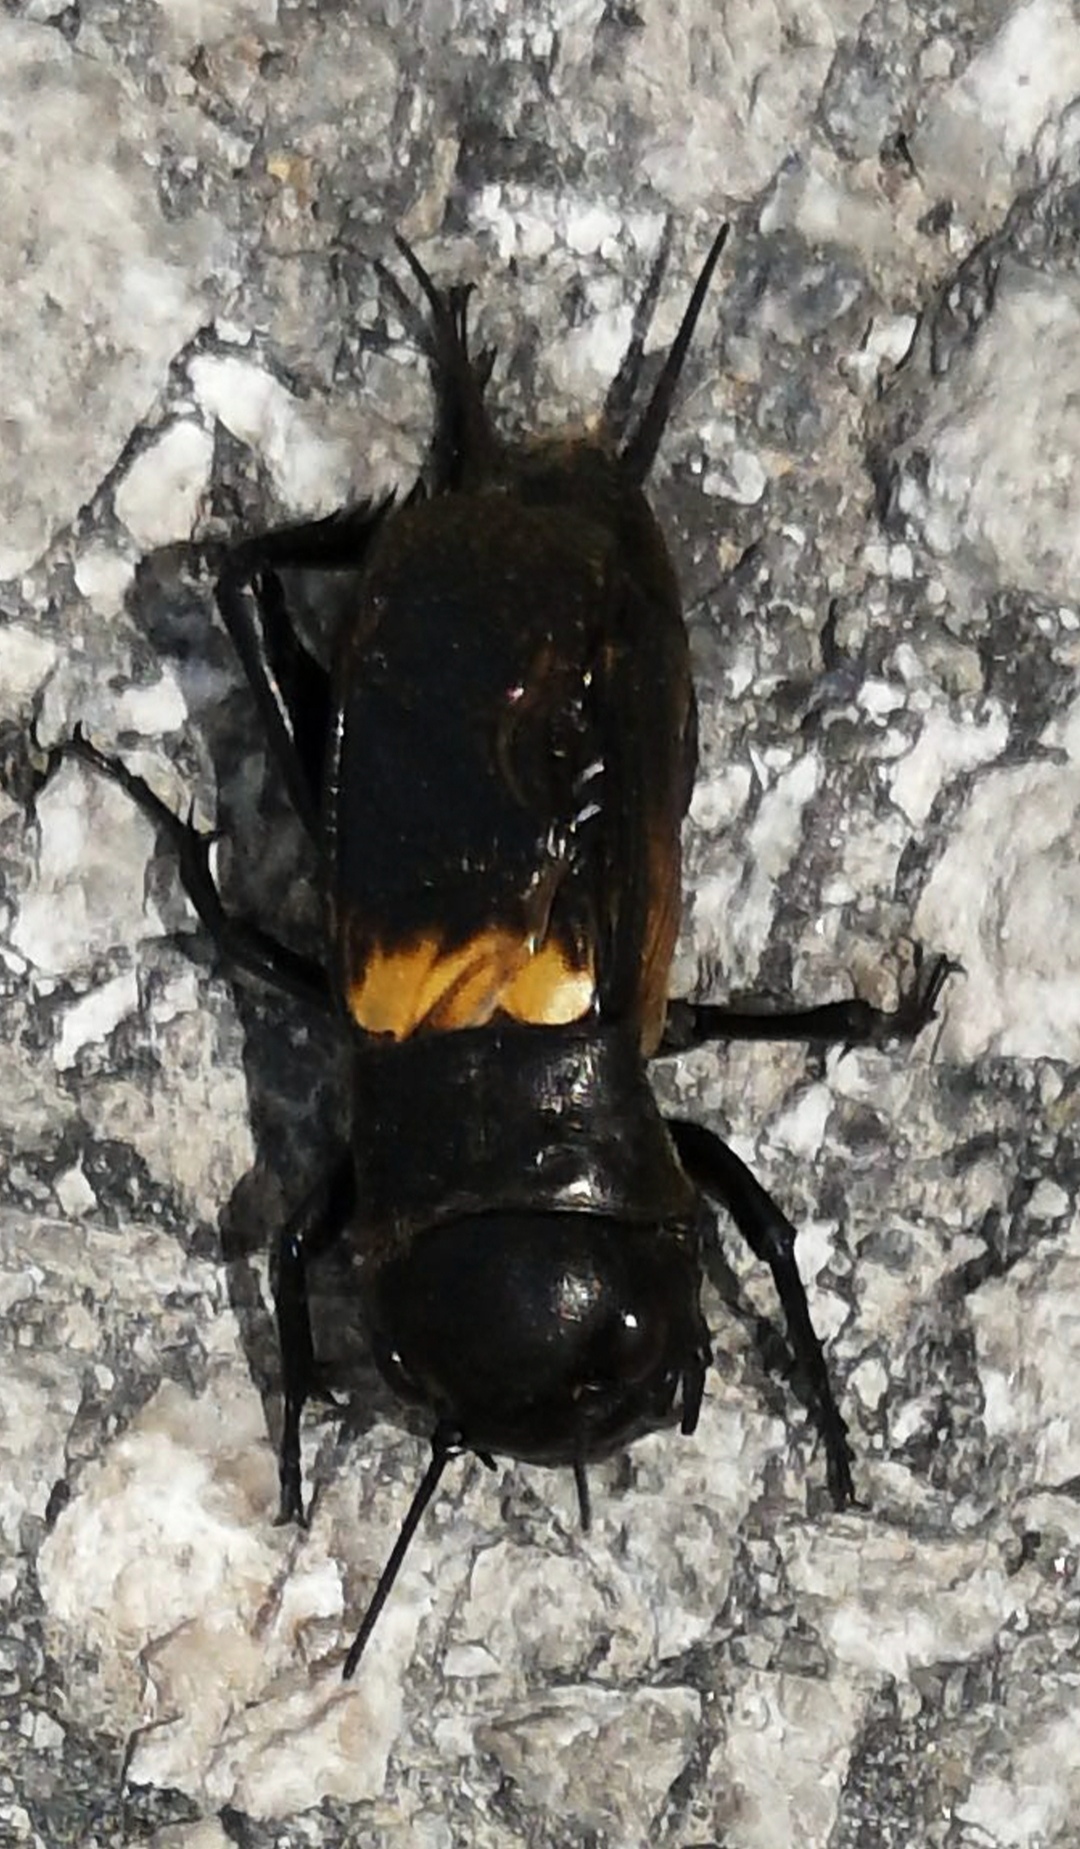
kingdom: Animalia
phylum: Arthropoda
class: Insecta
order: Orthoptera
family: Gryllidae
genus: Gryllus
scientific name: Gryllus campestris
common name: Field cricket
